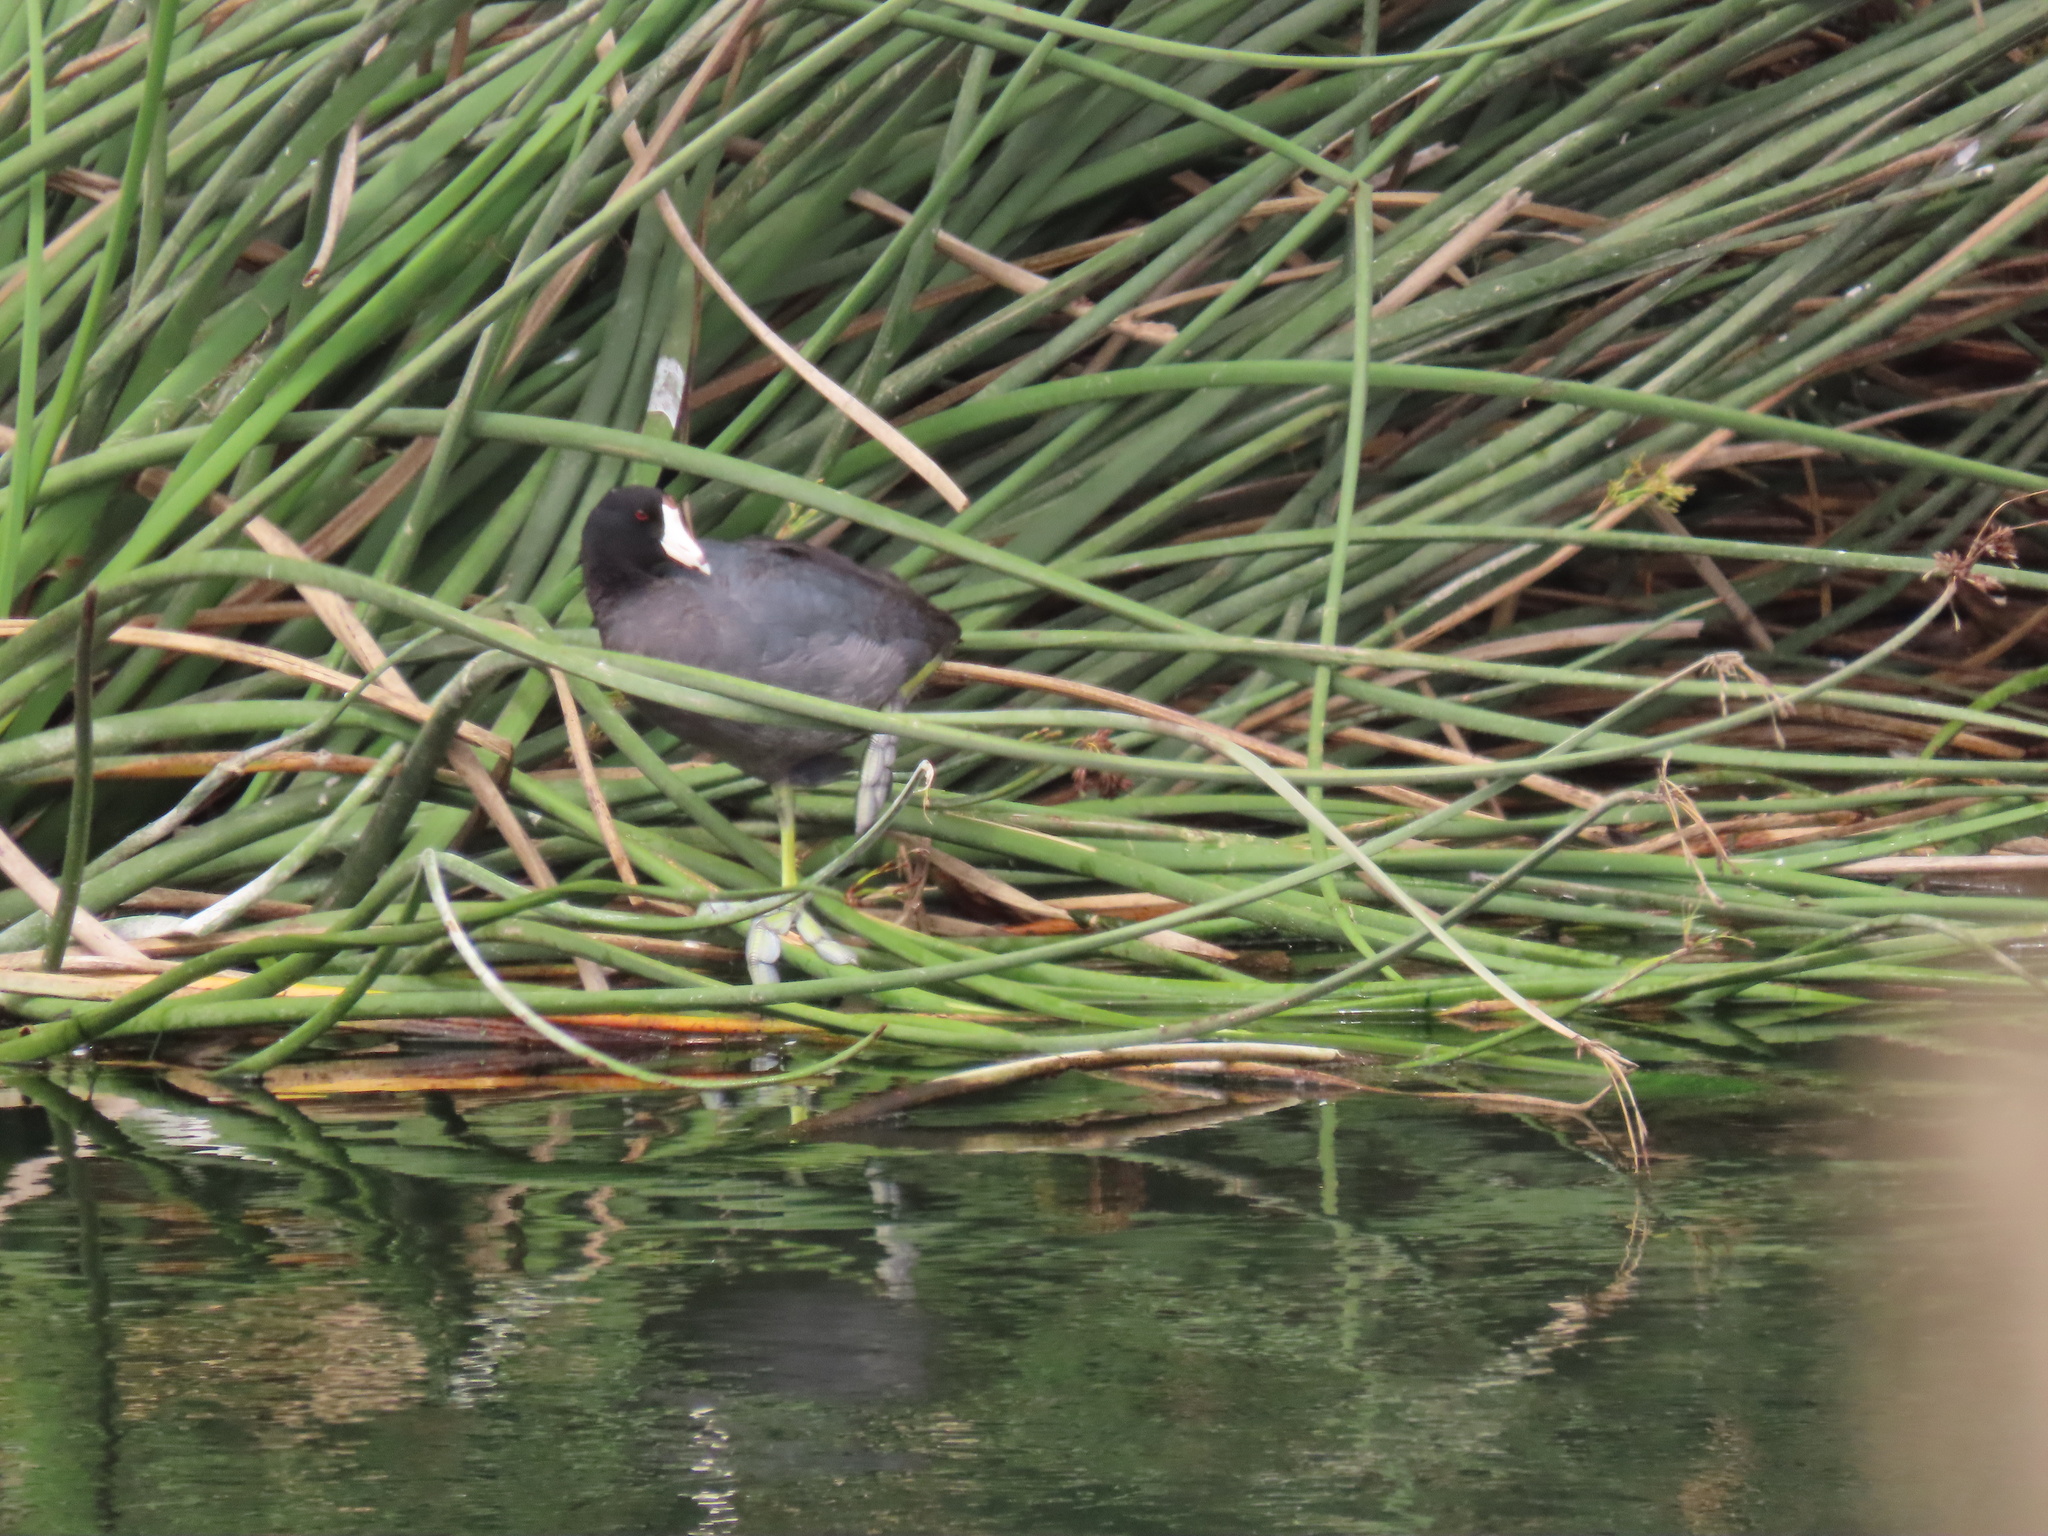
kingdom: Animalia
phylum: Chordata
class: Aves
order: Gruiformes
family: Rallidae
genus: Fulica
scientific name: Fulica americana
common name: American coot
